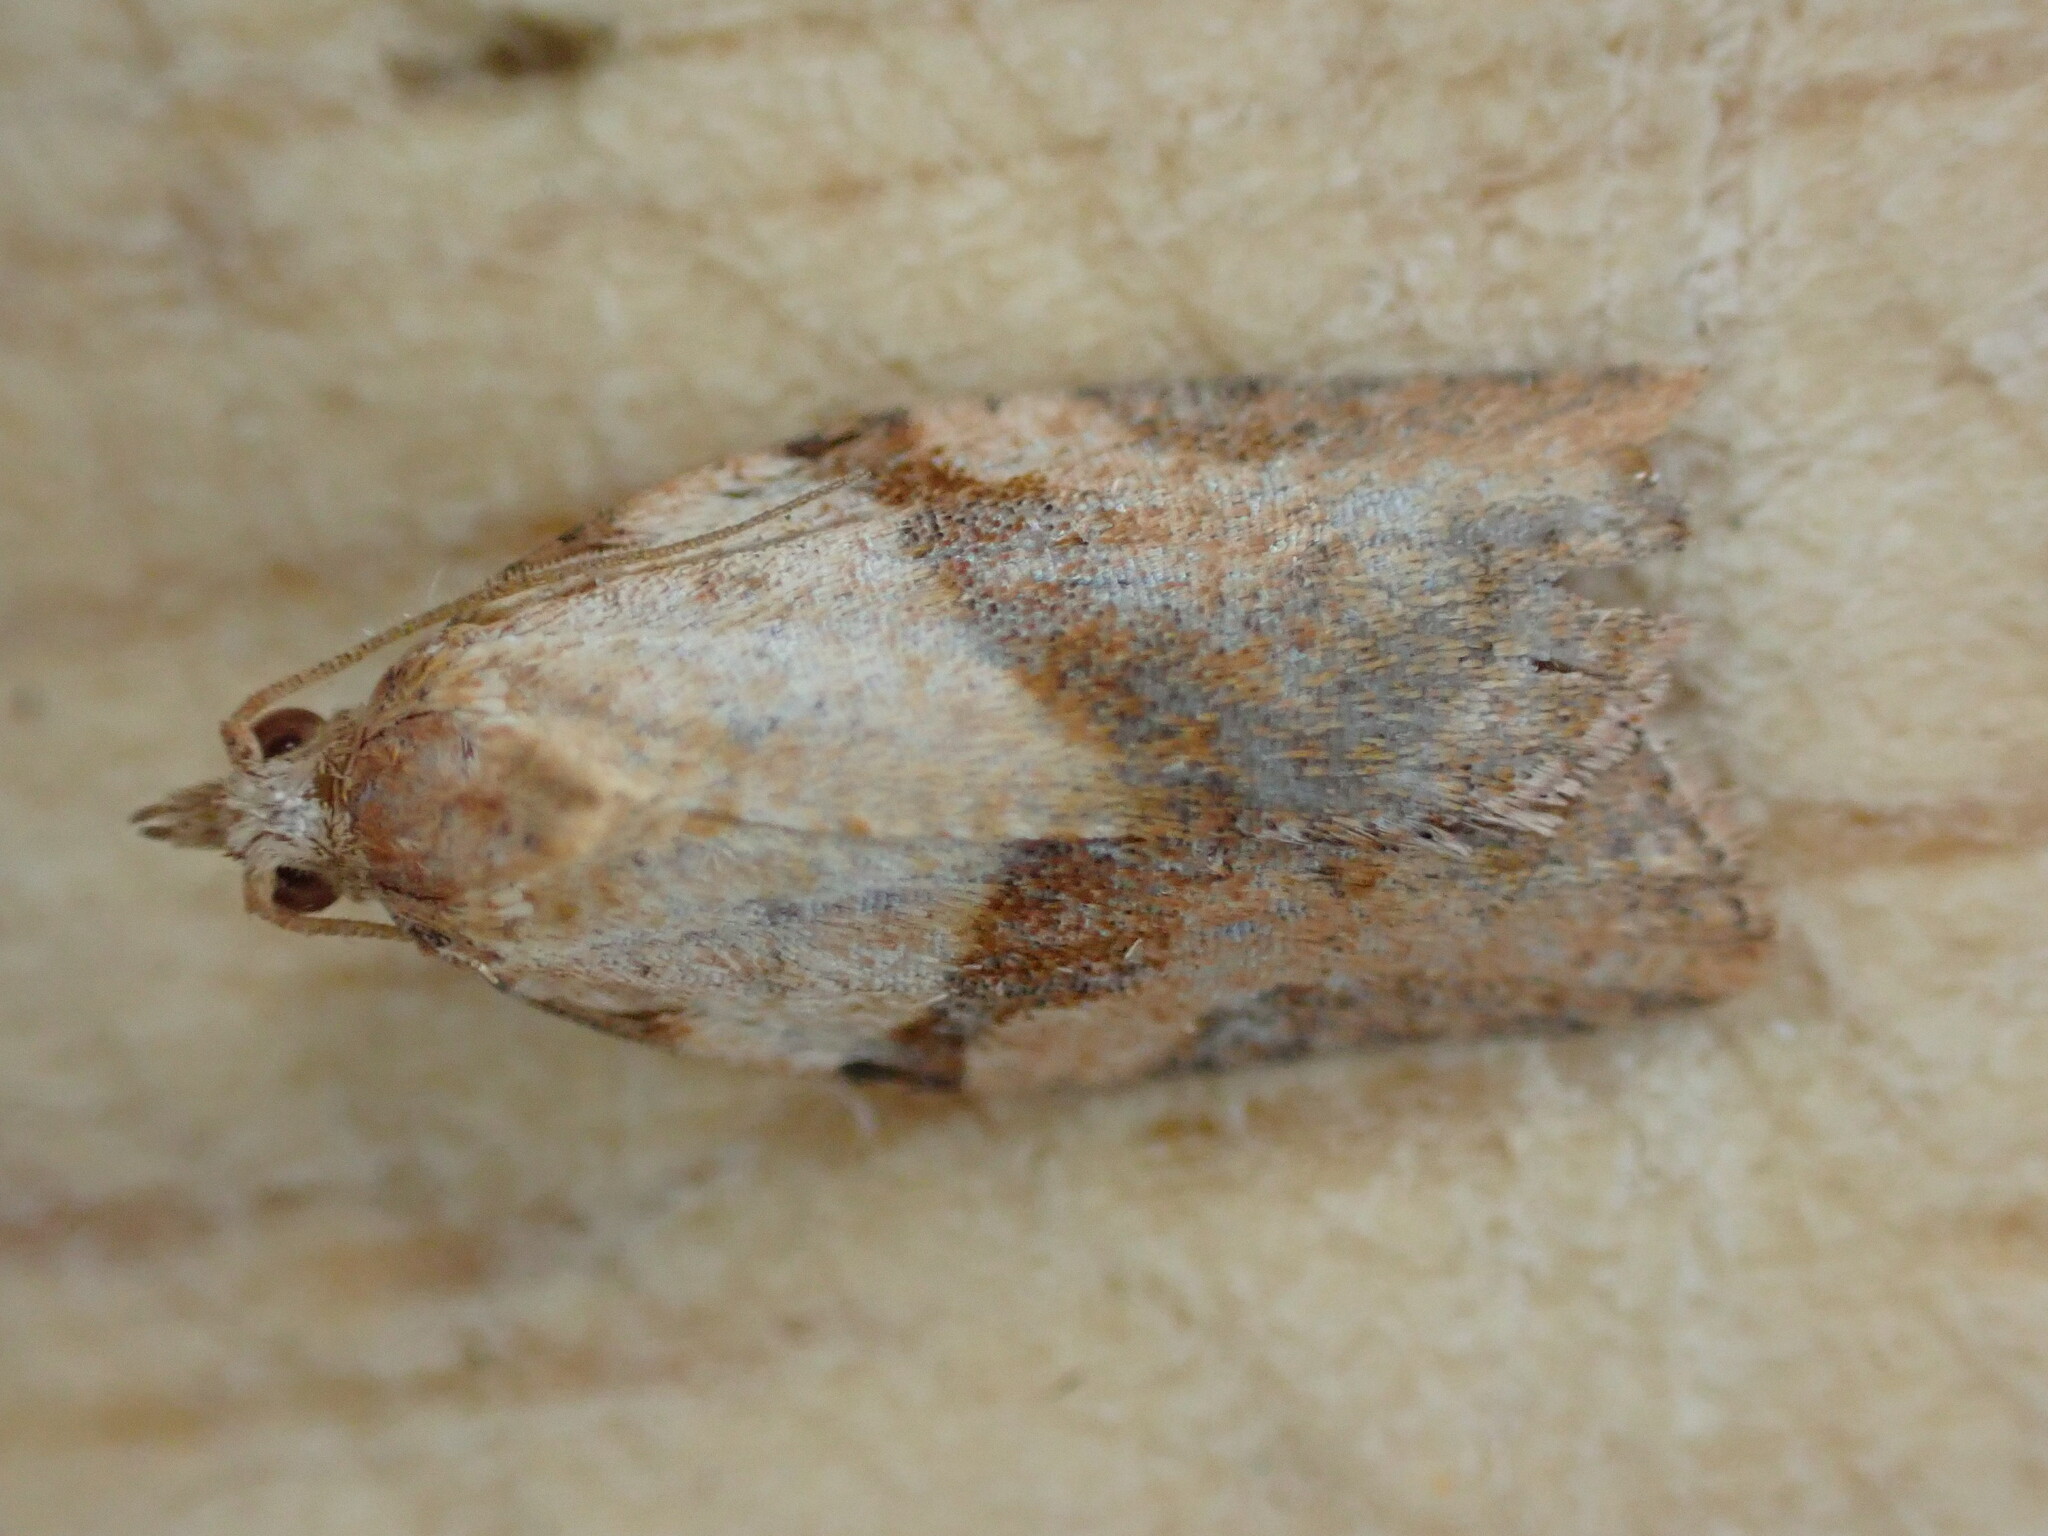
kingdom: Animalia
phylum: Arthropoda
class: Insecta
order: Lepidoptera
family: Tortricidae
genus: Epiphyas
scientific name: Epiphyas postvittana
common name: Light brown apple moth
